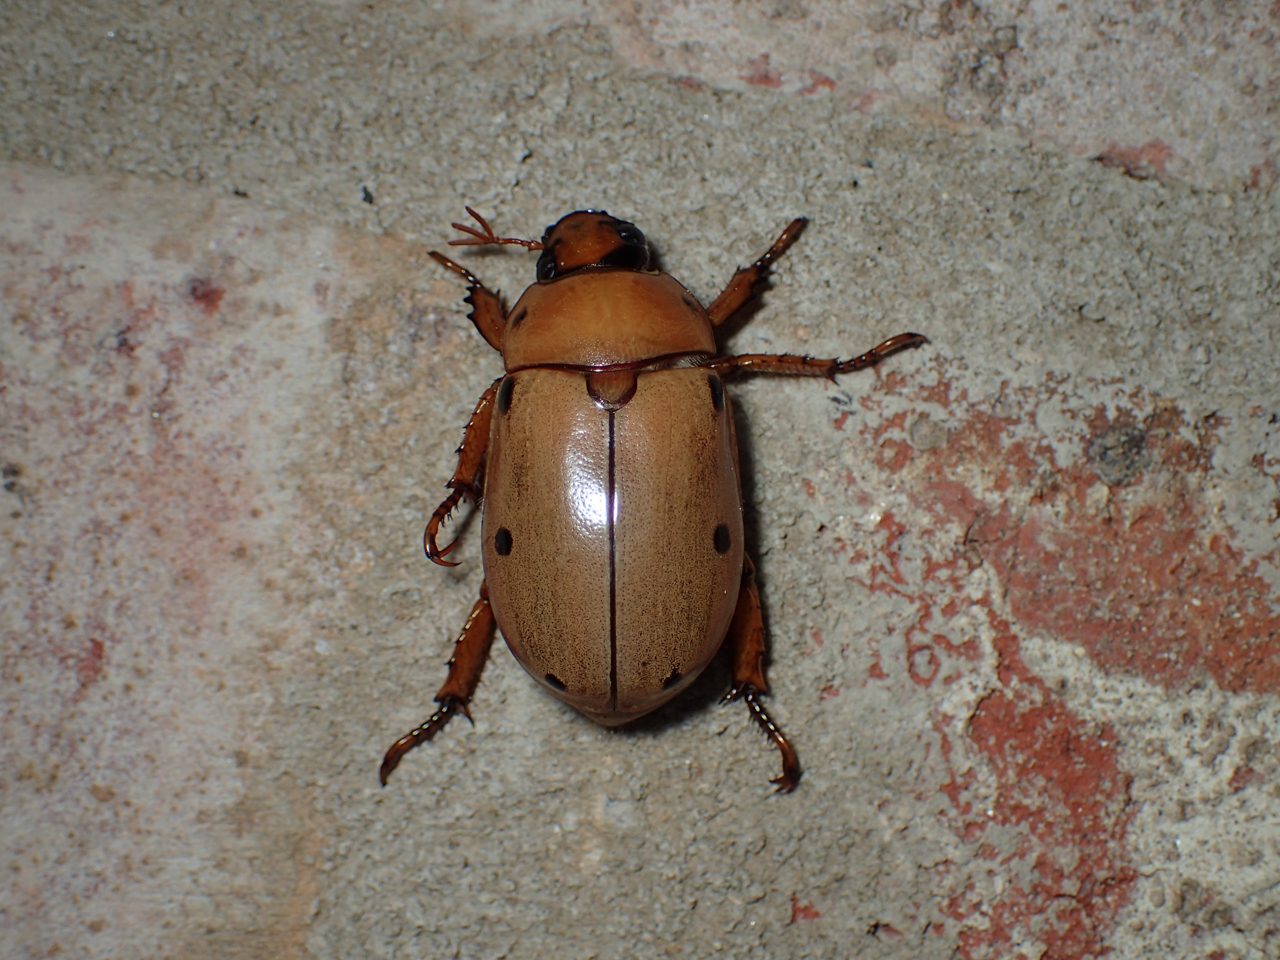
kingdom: Animalia
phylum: Arthropoda
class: Insecta
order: Coleoptera
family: Scarabaeidae
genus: Pelidnota
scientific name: Pelidnota punctata
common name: Grapevine beetle
